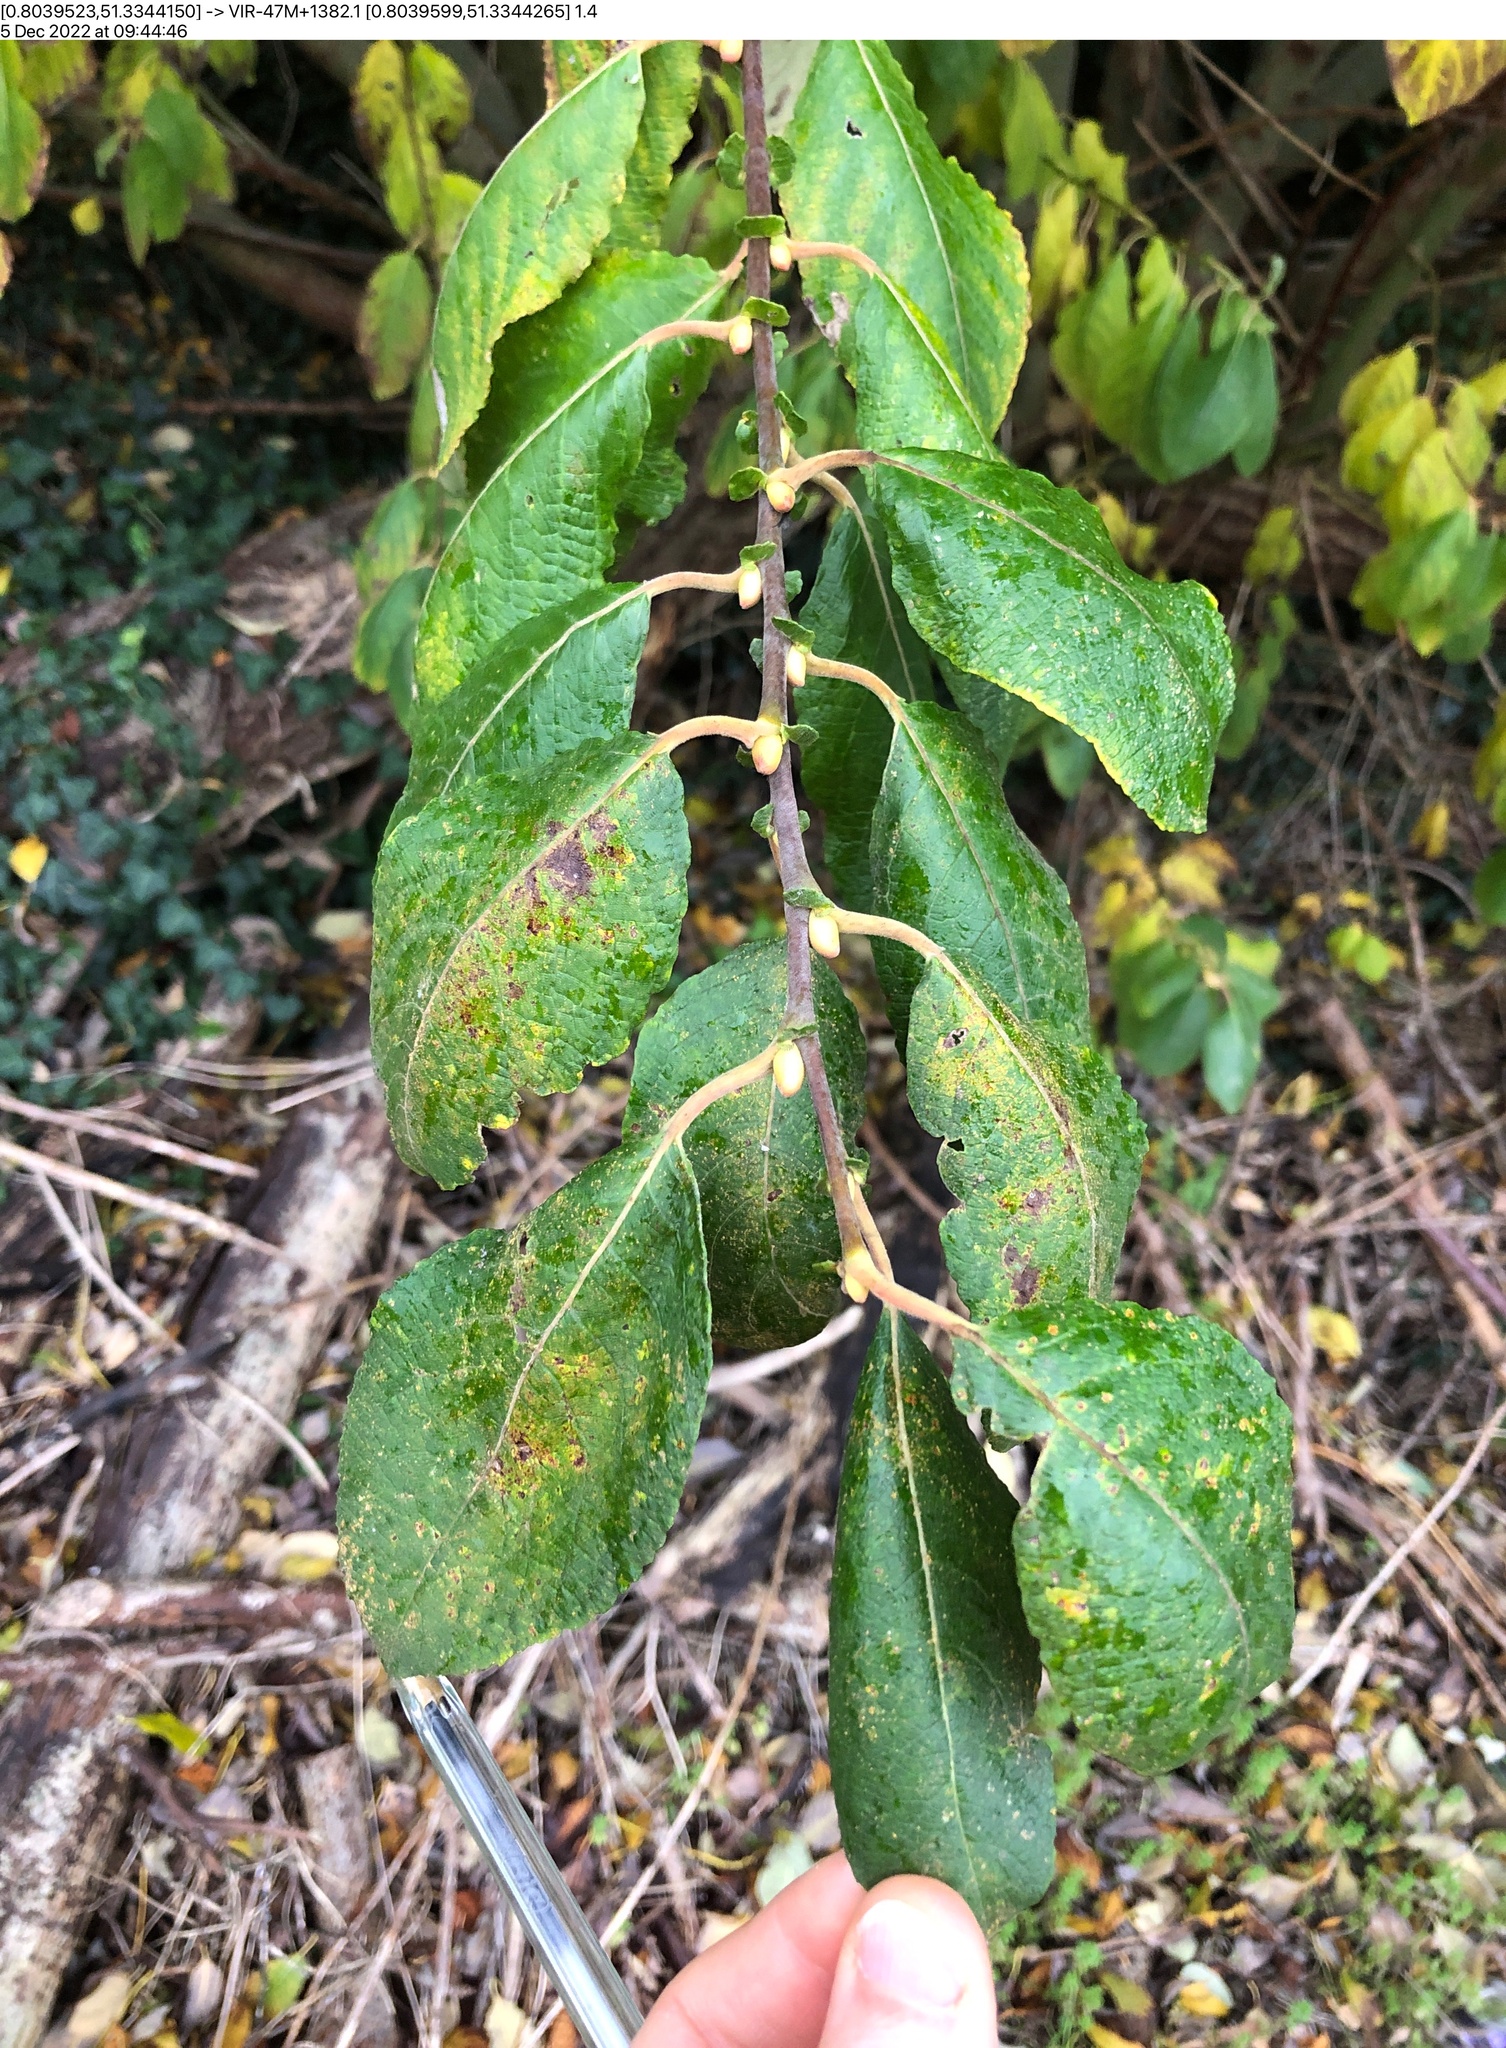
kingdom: Plantae
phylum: Tracheophyta
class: Magnoliopsida
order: Malpighiales
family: Salicaceae
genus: Salix
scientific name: Salix caprea
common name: Goat willow
